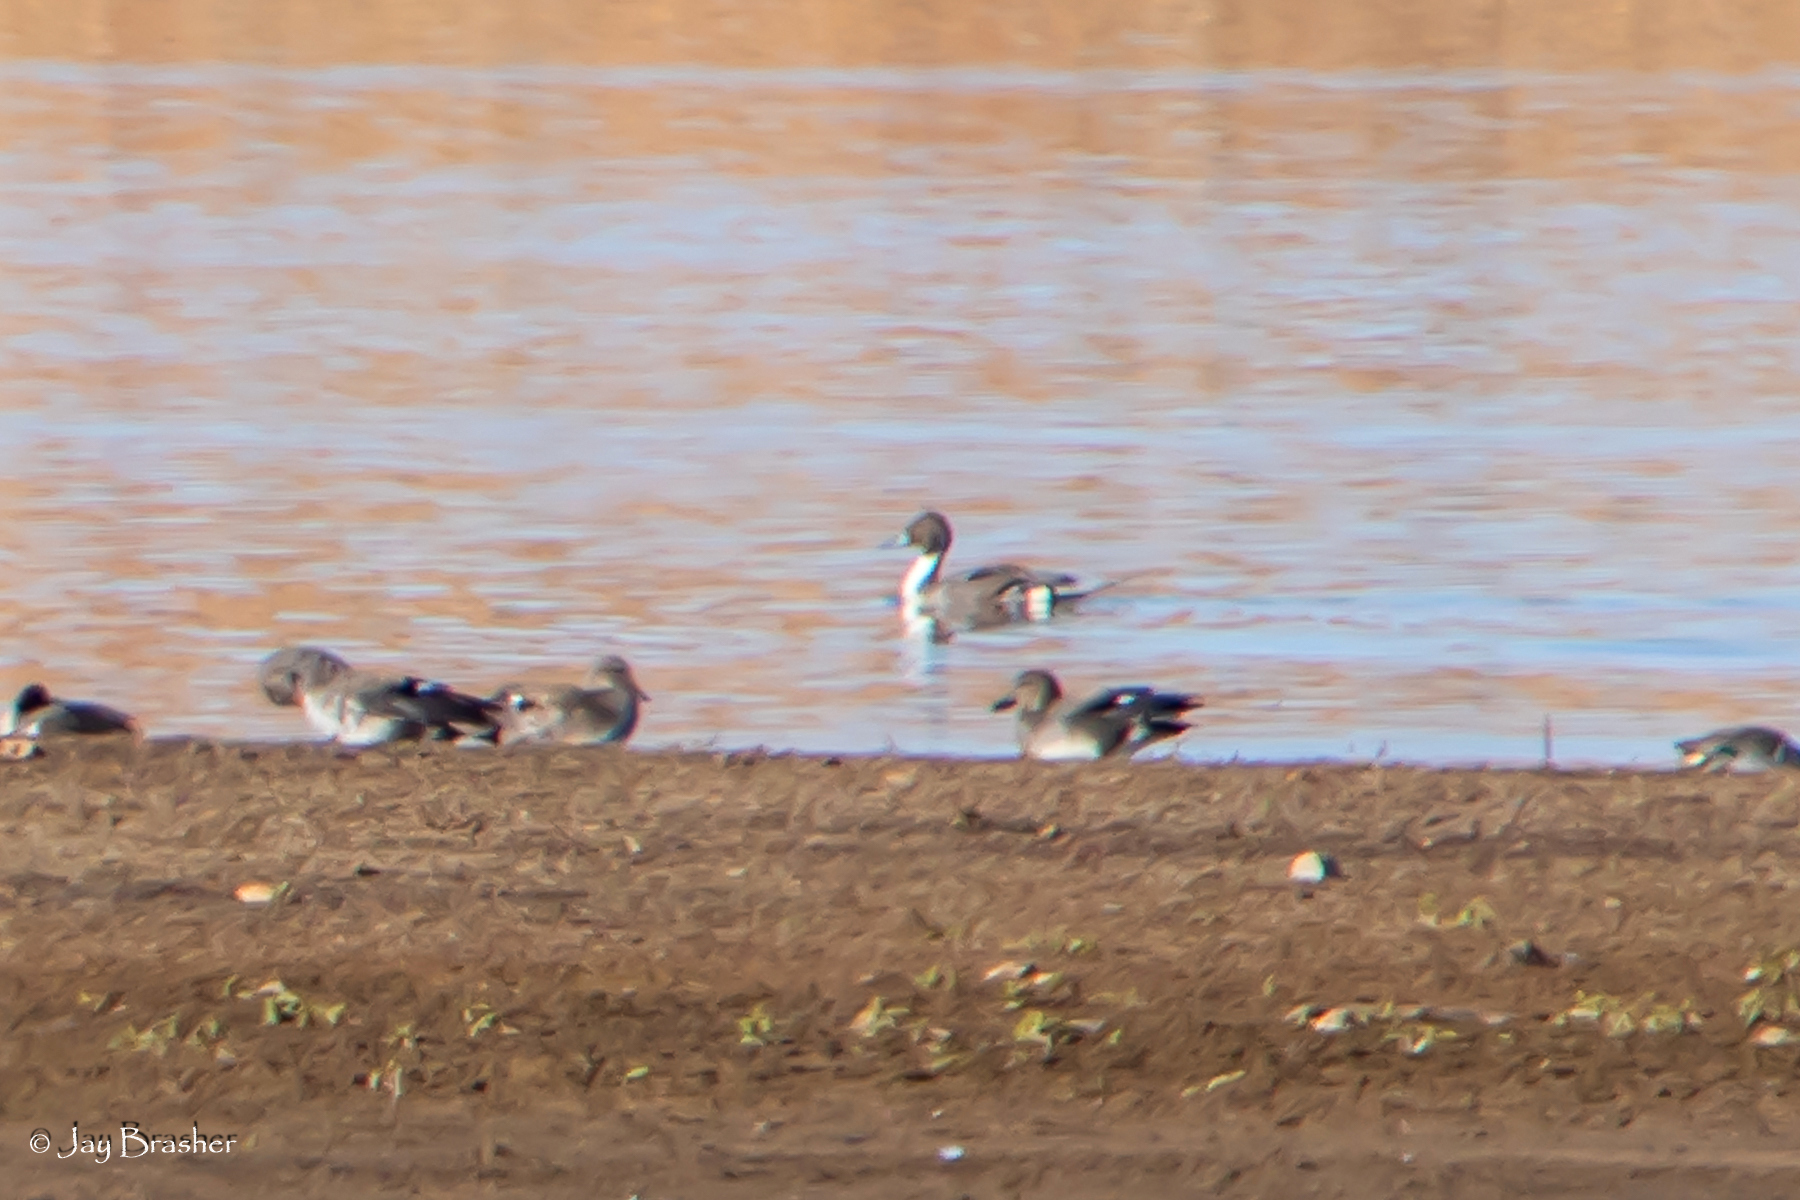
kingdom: Animalia
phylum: Chordata
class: Aves
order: Anseriformes
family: Anatidae
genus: Anas
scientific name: Anas acuta
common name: Northern pintail
